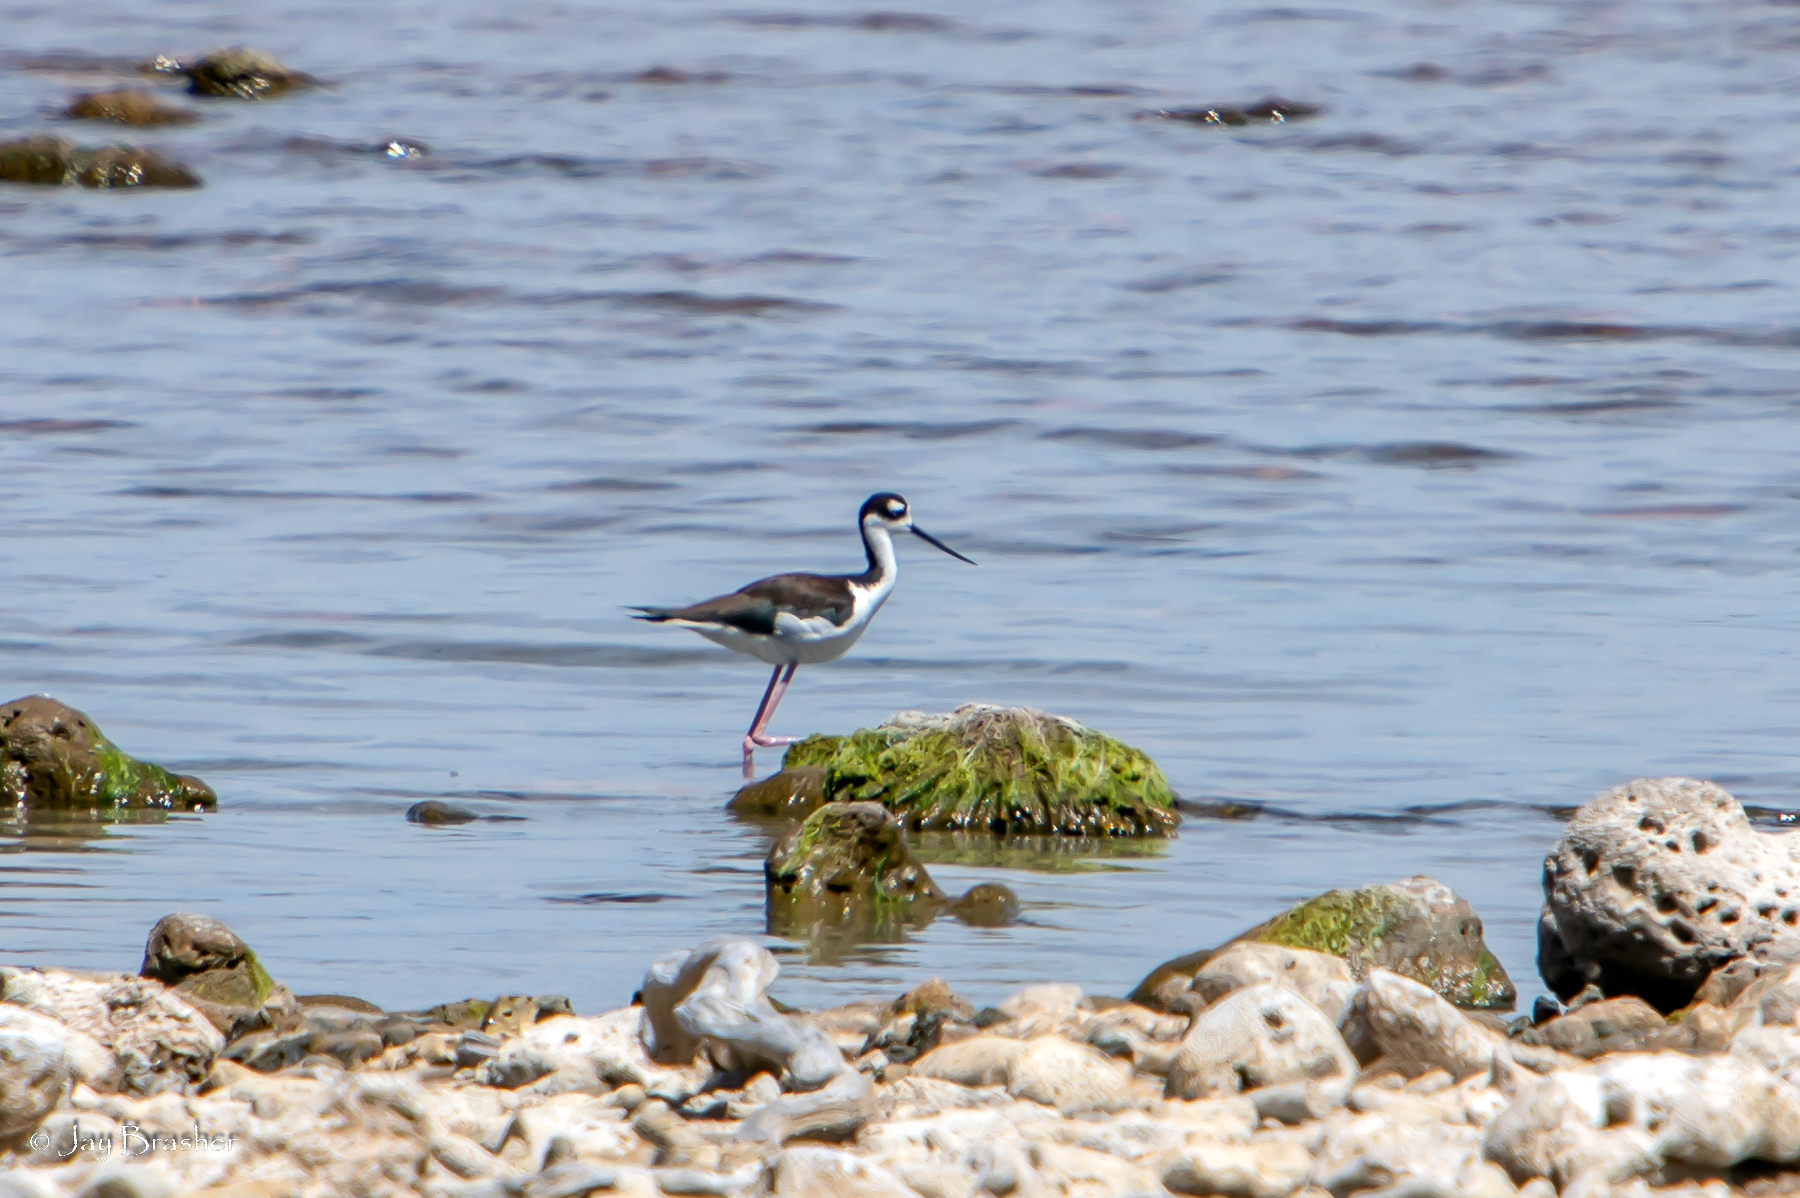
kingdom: Animalia
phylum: Chordata
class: Aves
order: Charadriiformes
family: Recurvirostridae
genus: Himantopus
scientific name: Himantopus mexicanus
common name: Black-necked stilt
